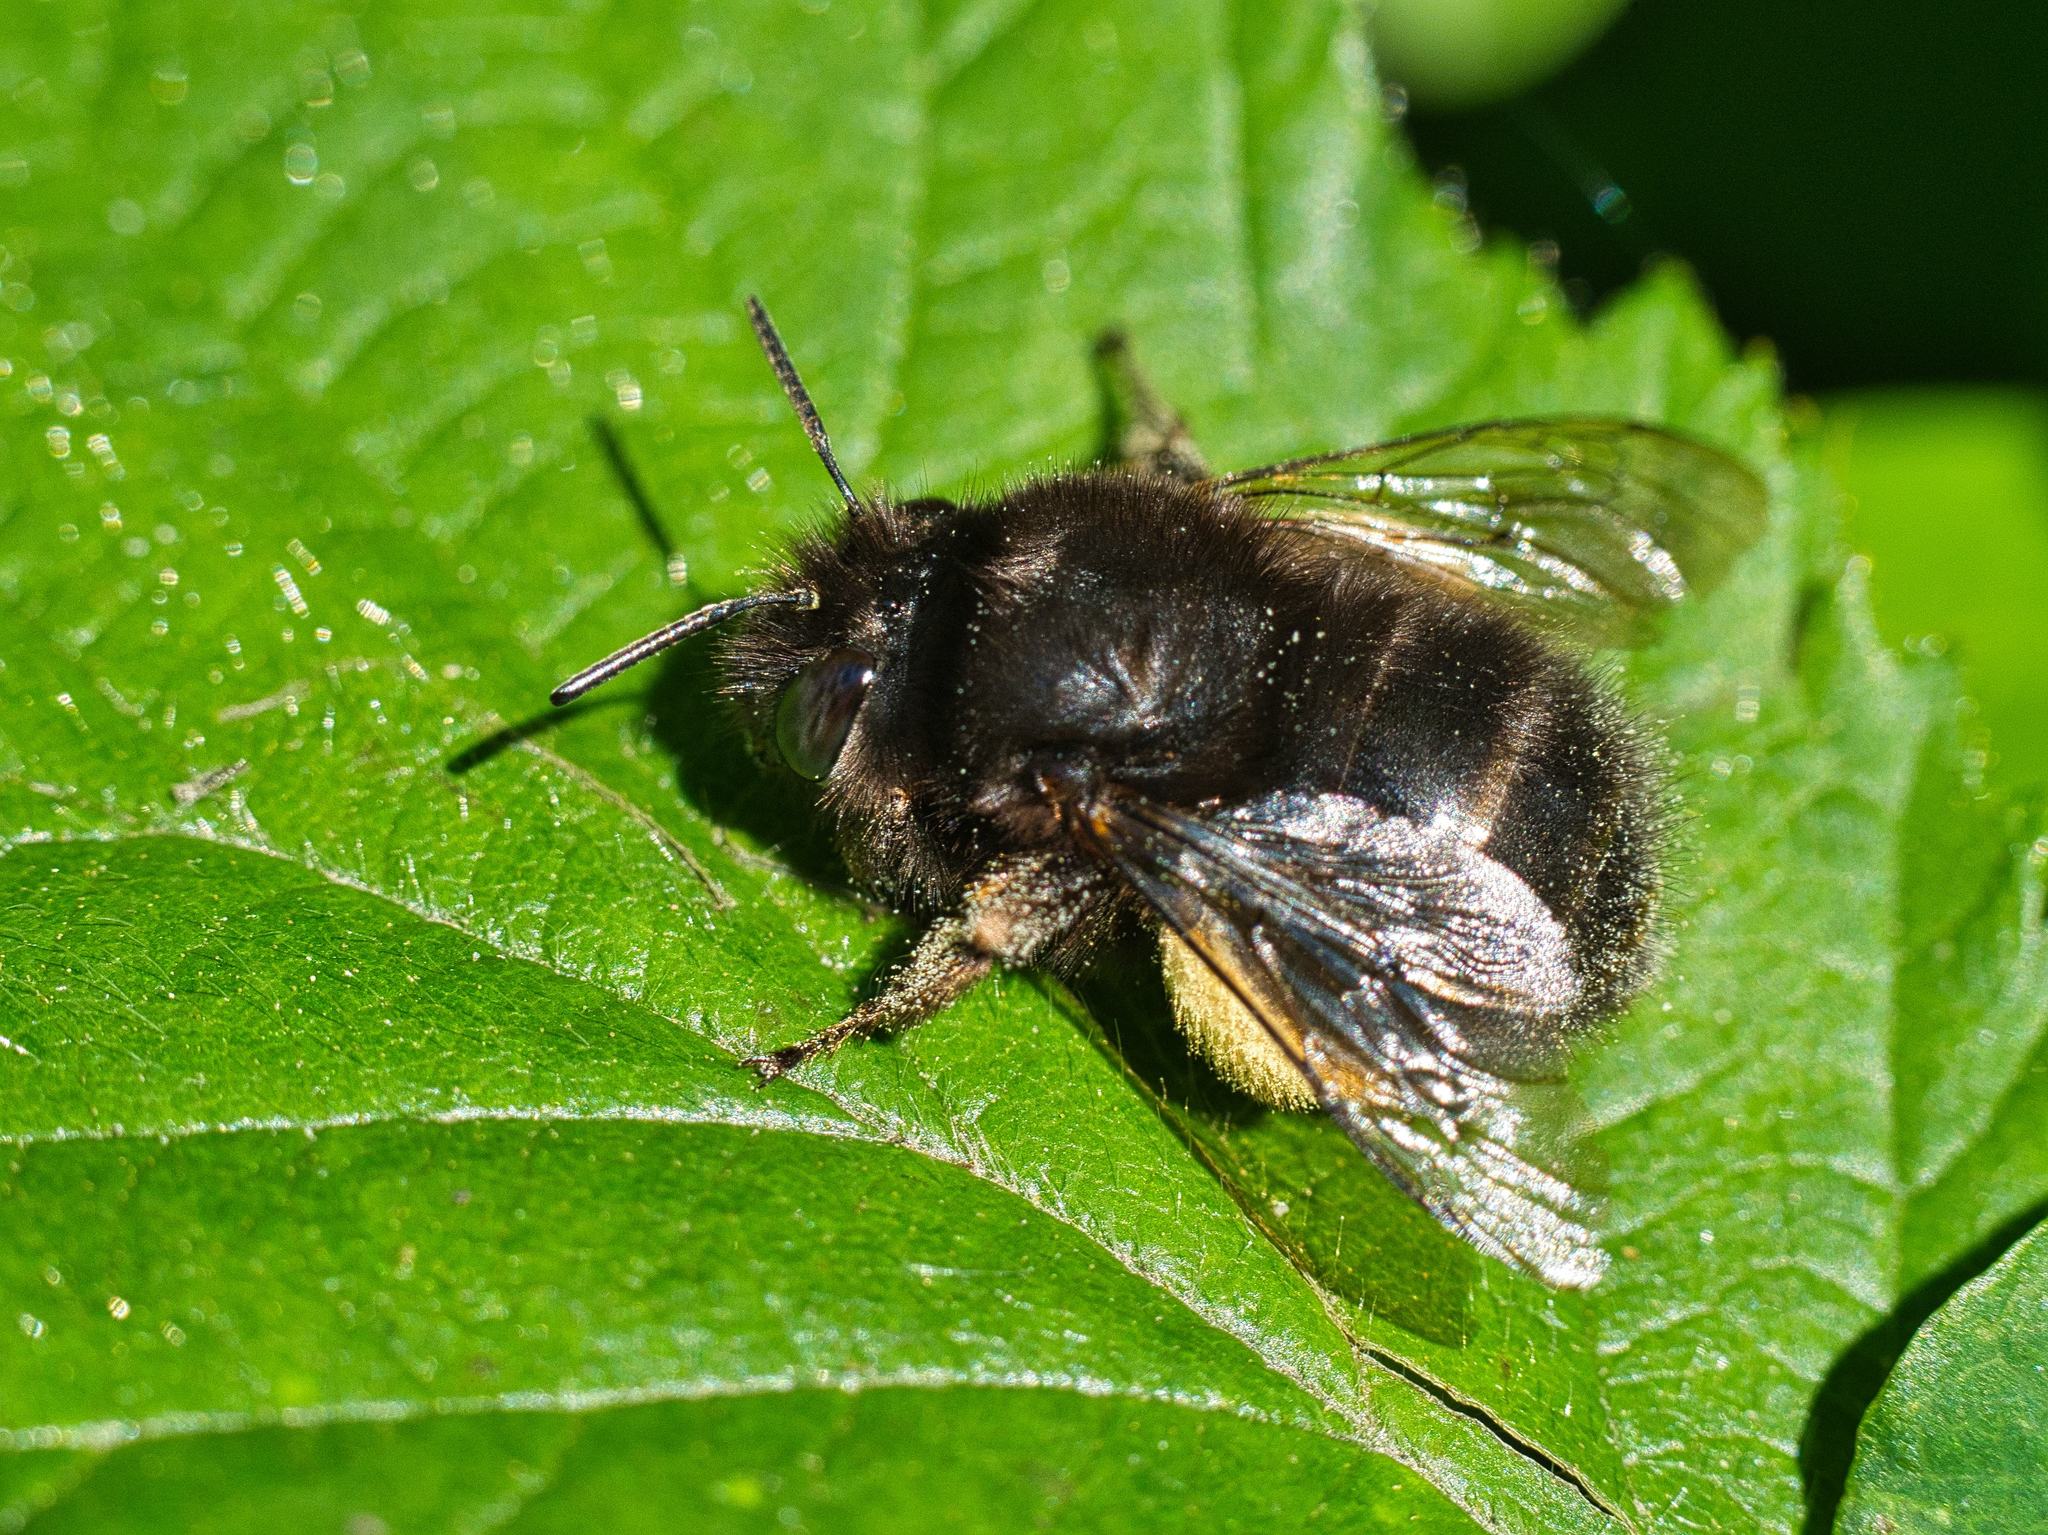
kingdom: Animalia
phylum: Arthropoda
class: Insecta
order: Hymenoptera
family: Apidae
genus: Anthophora
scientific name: Anthophora plumipes
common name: Hairy-footed flower bee
